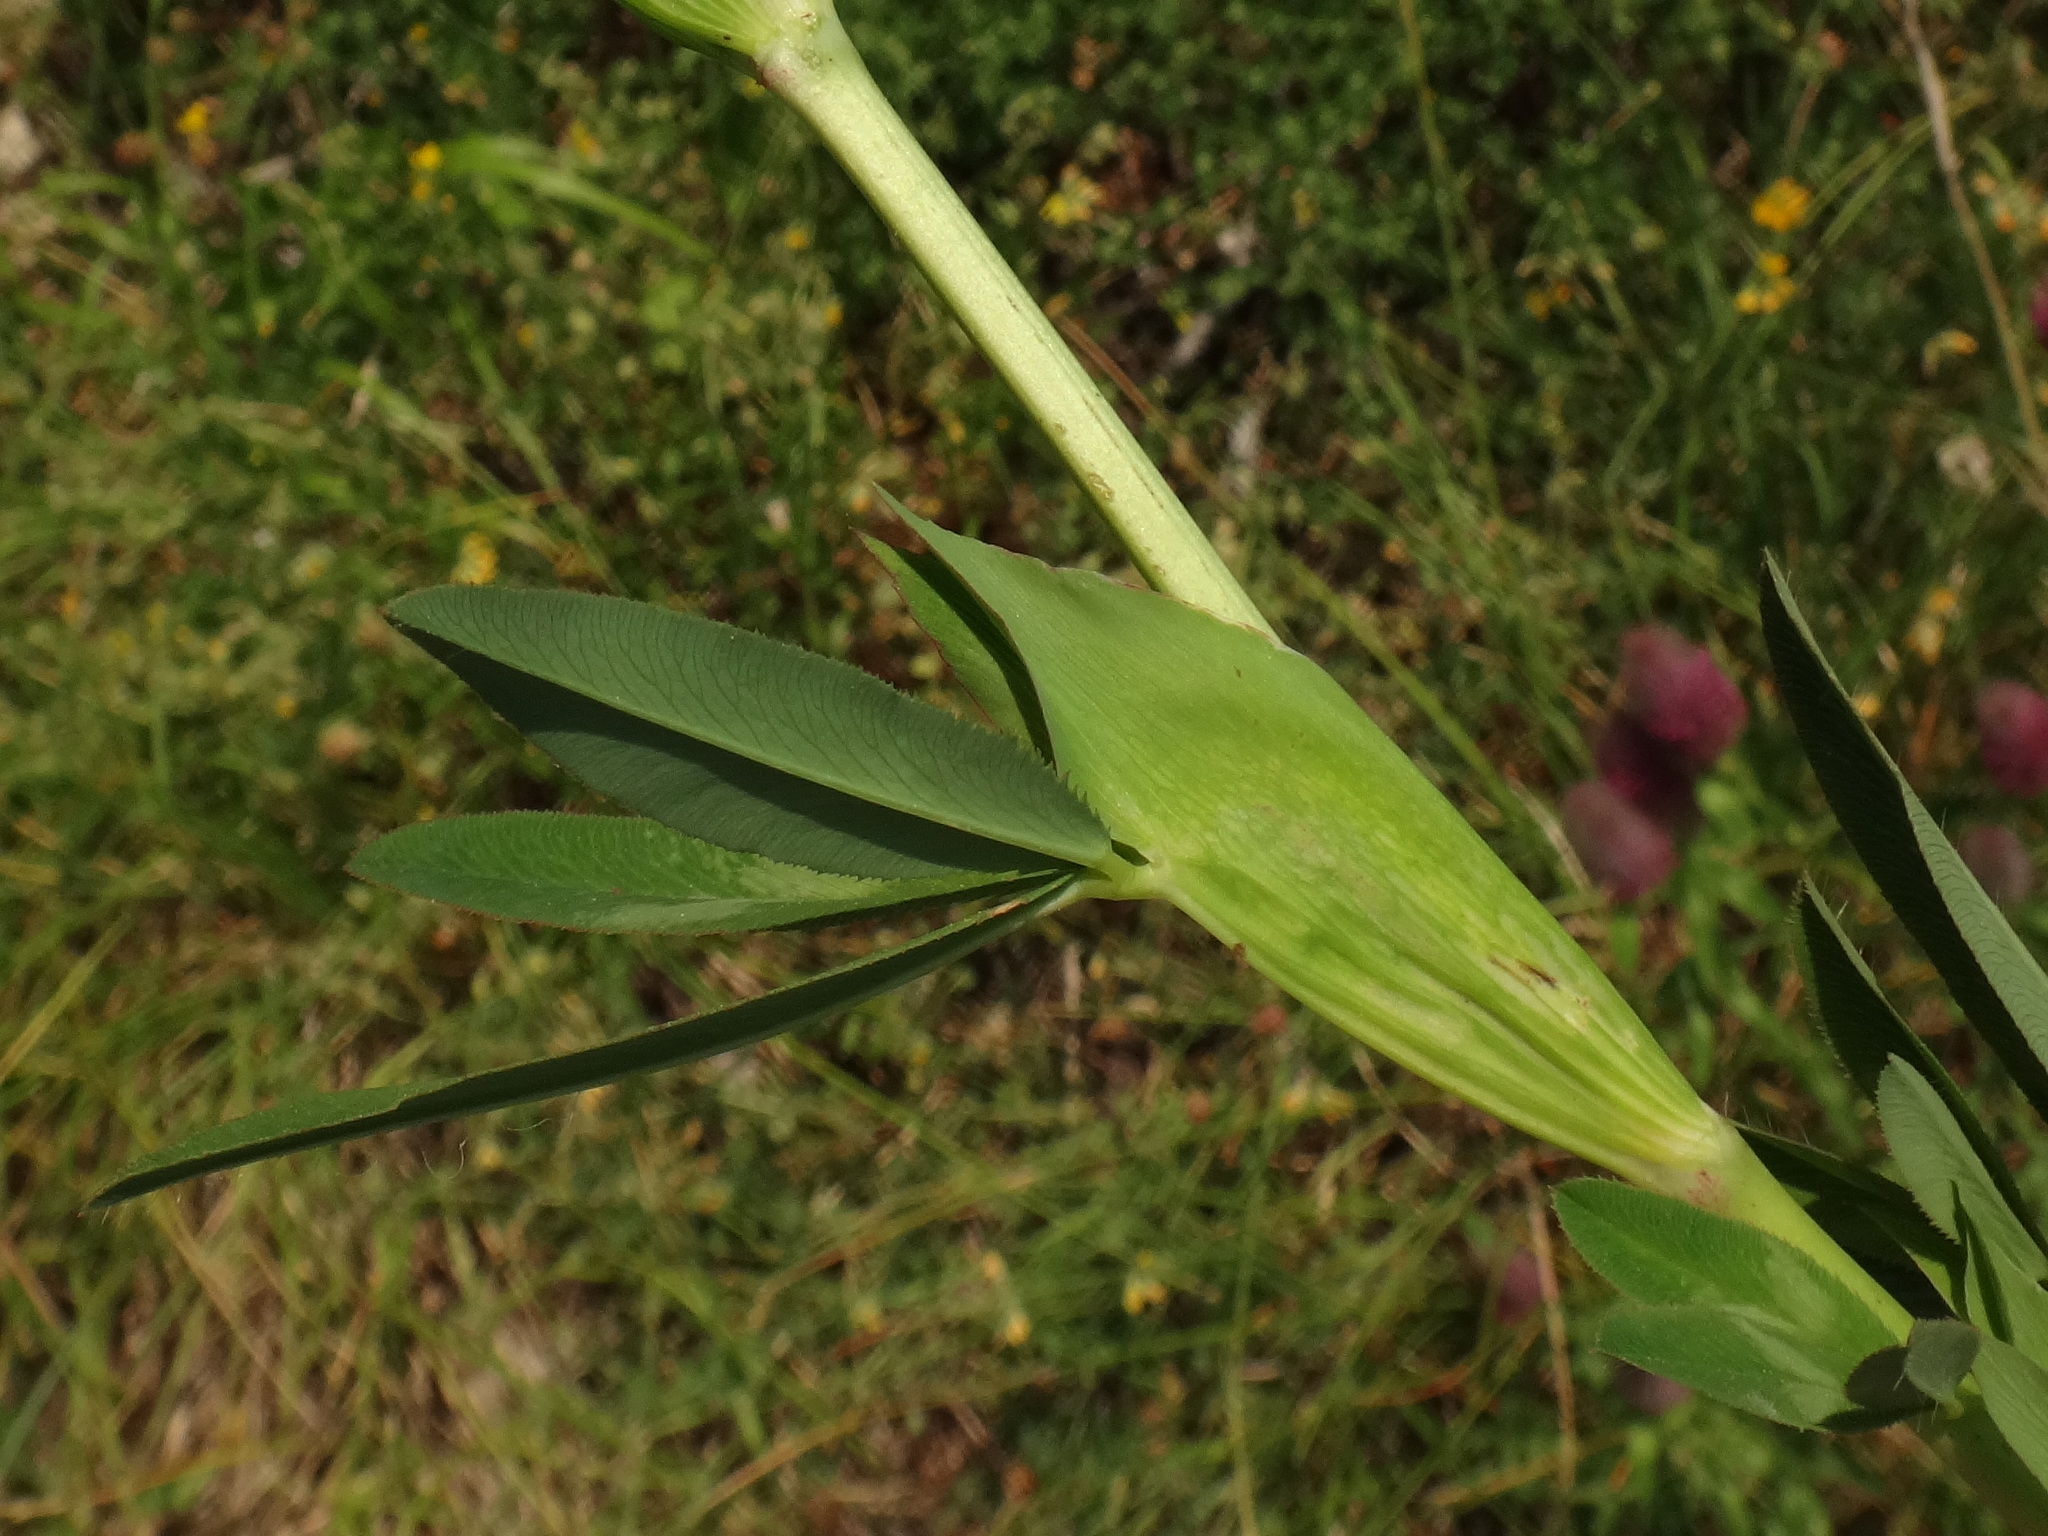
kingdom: Plantae
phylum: Tracheophyta
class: Magnoliopsida
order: Fabales
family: Fabaceae
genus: Trifolium
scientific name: Trifolium rubens
